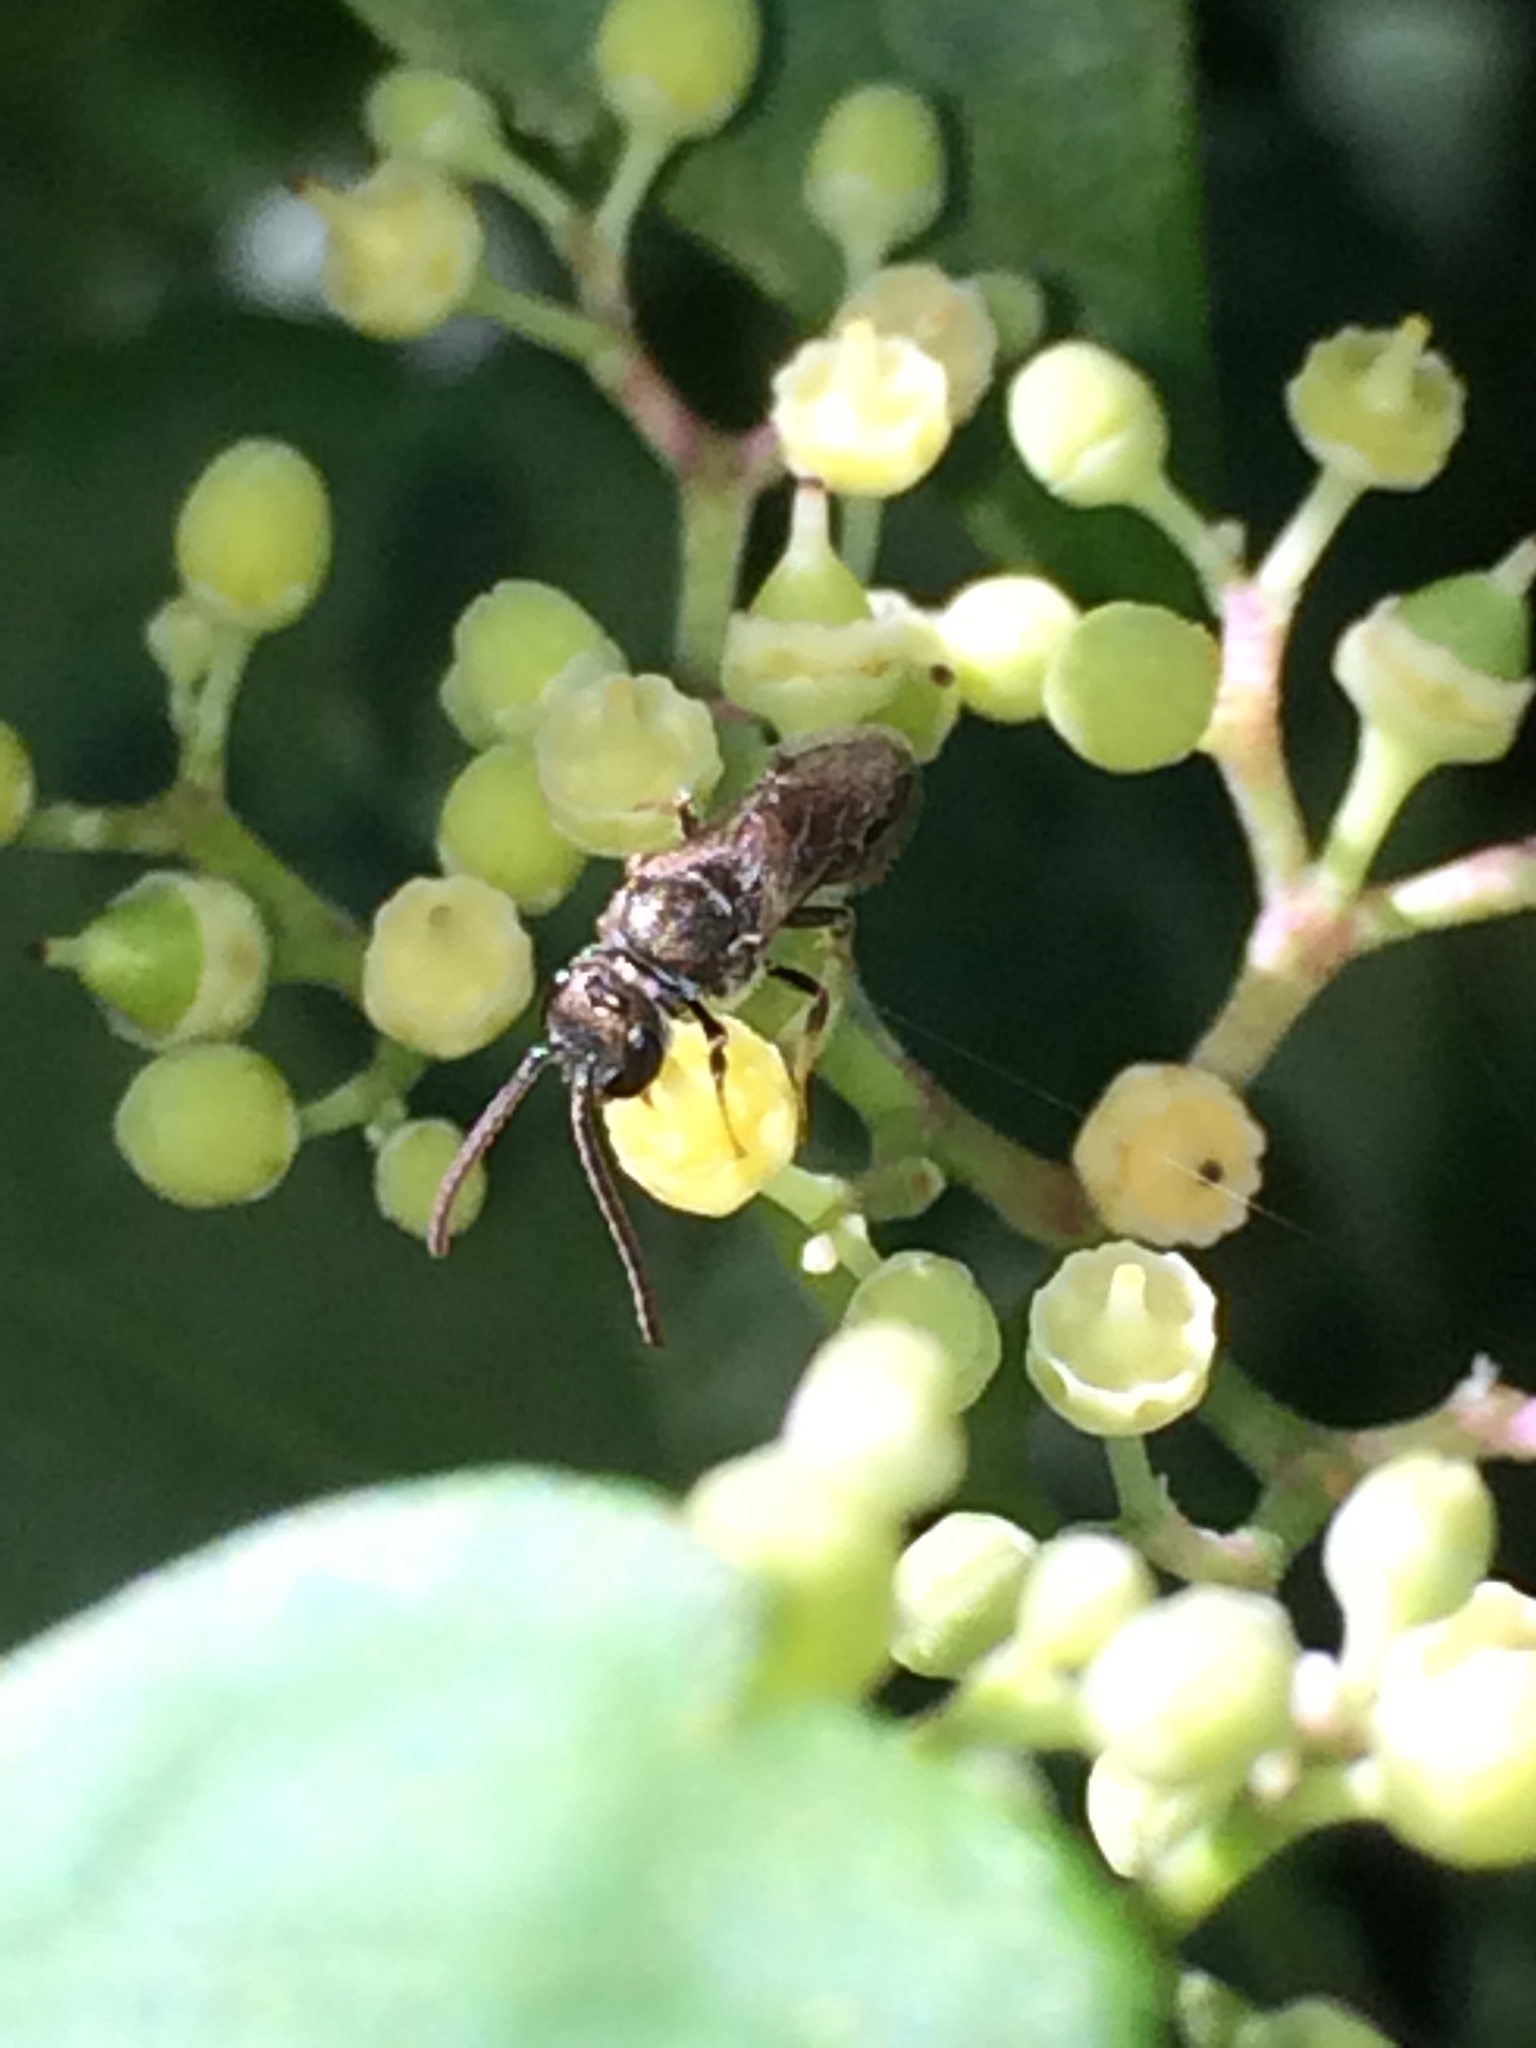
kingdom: Animalia
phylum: Arthropoda
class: Insecta
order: Hymenoptera
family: Halictidae
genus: Dialictus
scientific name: Dialictus
